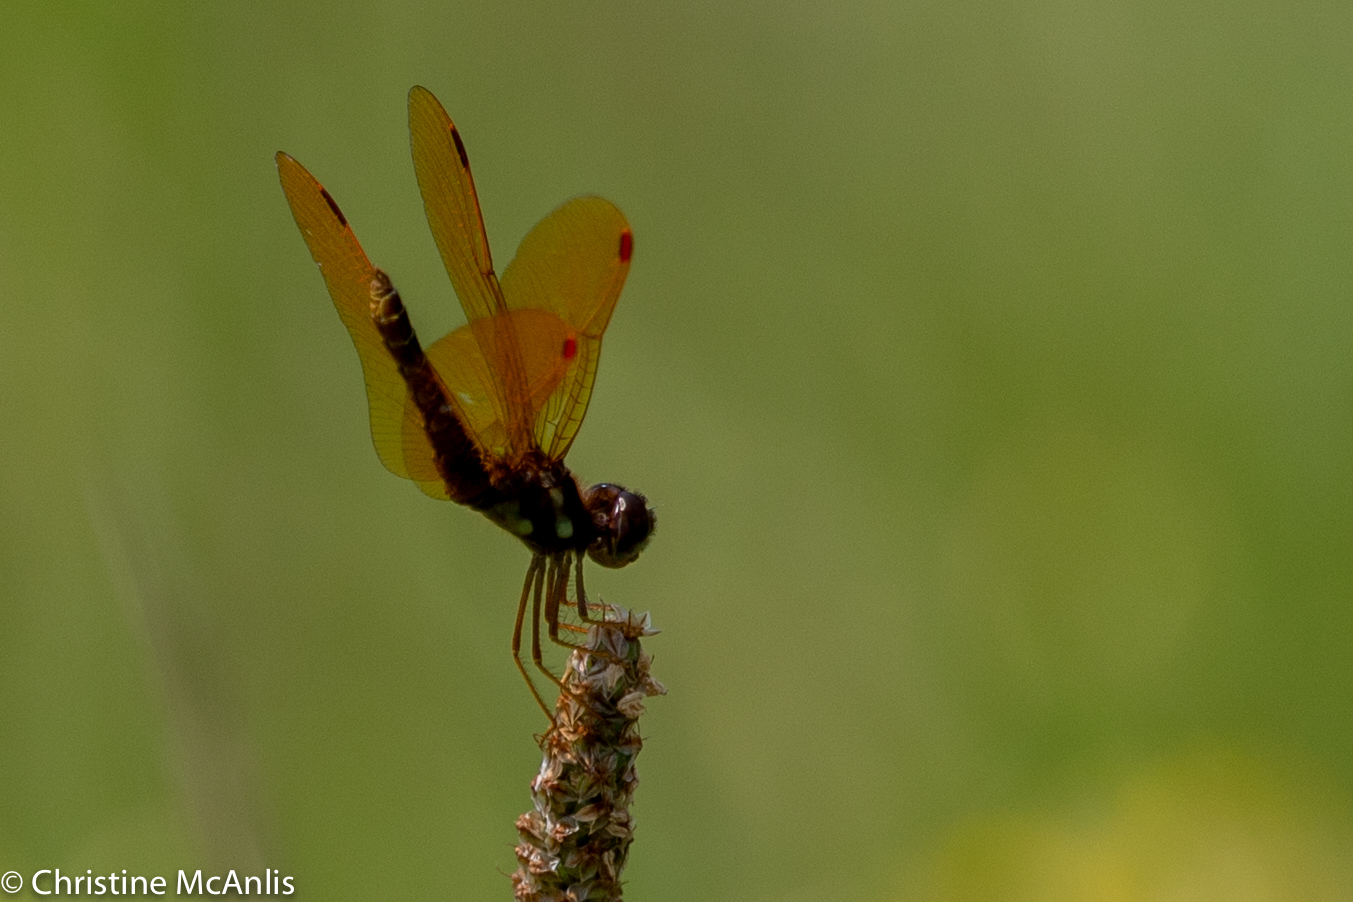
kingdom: Animalia
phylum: Arthropoda
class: Insecta
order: Odonata
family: Libellulidae
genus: Perithemis
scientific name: Perithemis tenera
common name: Eastern amberwing
